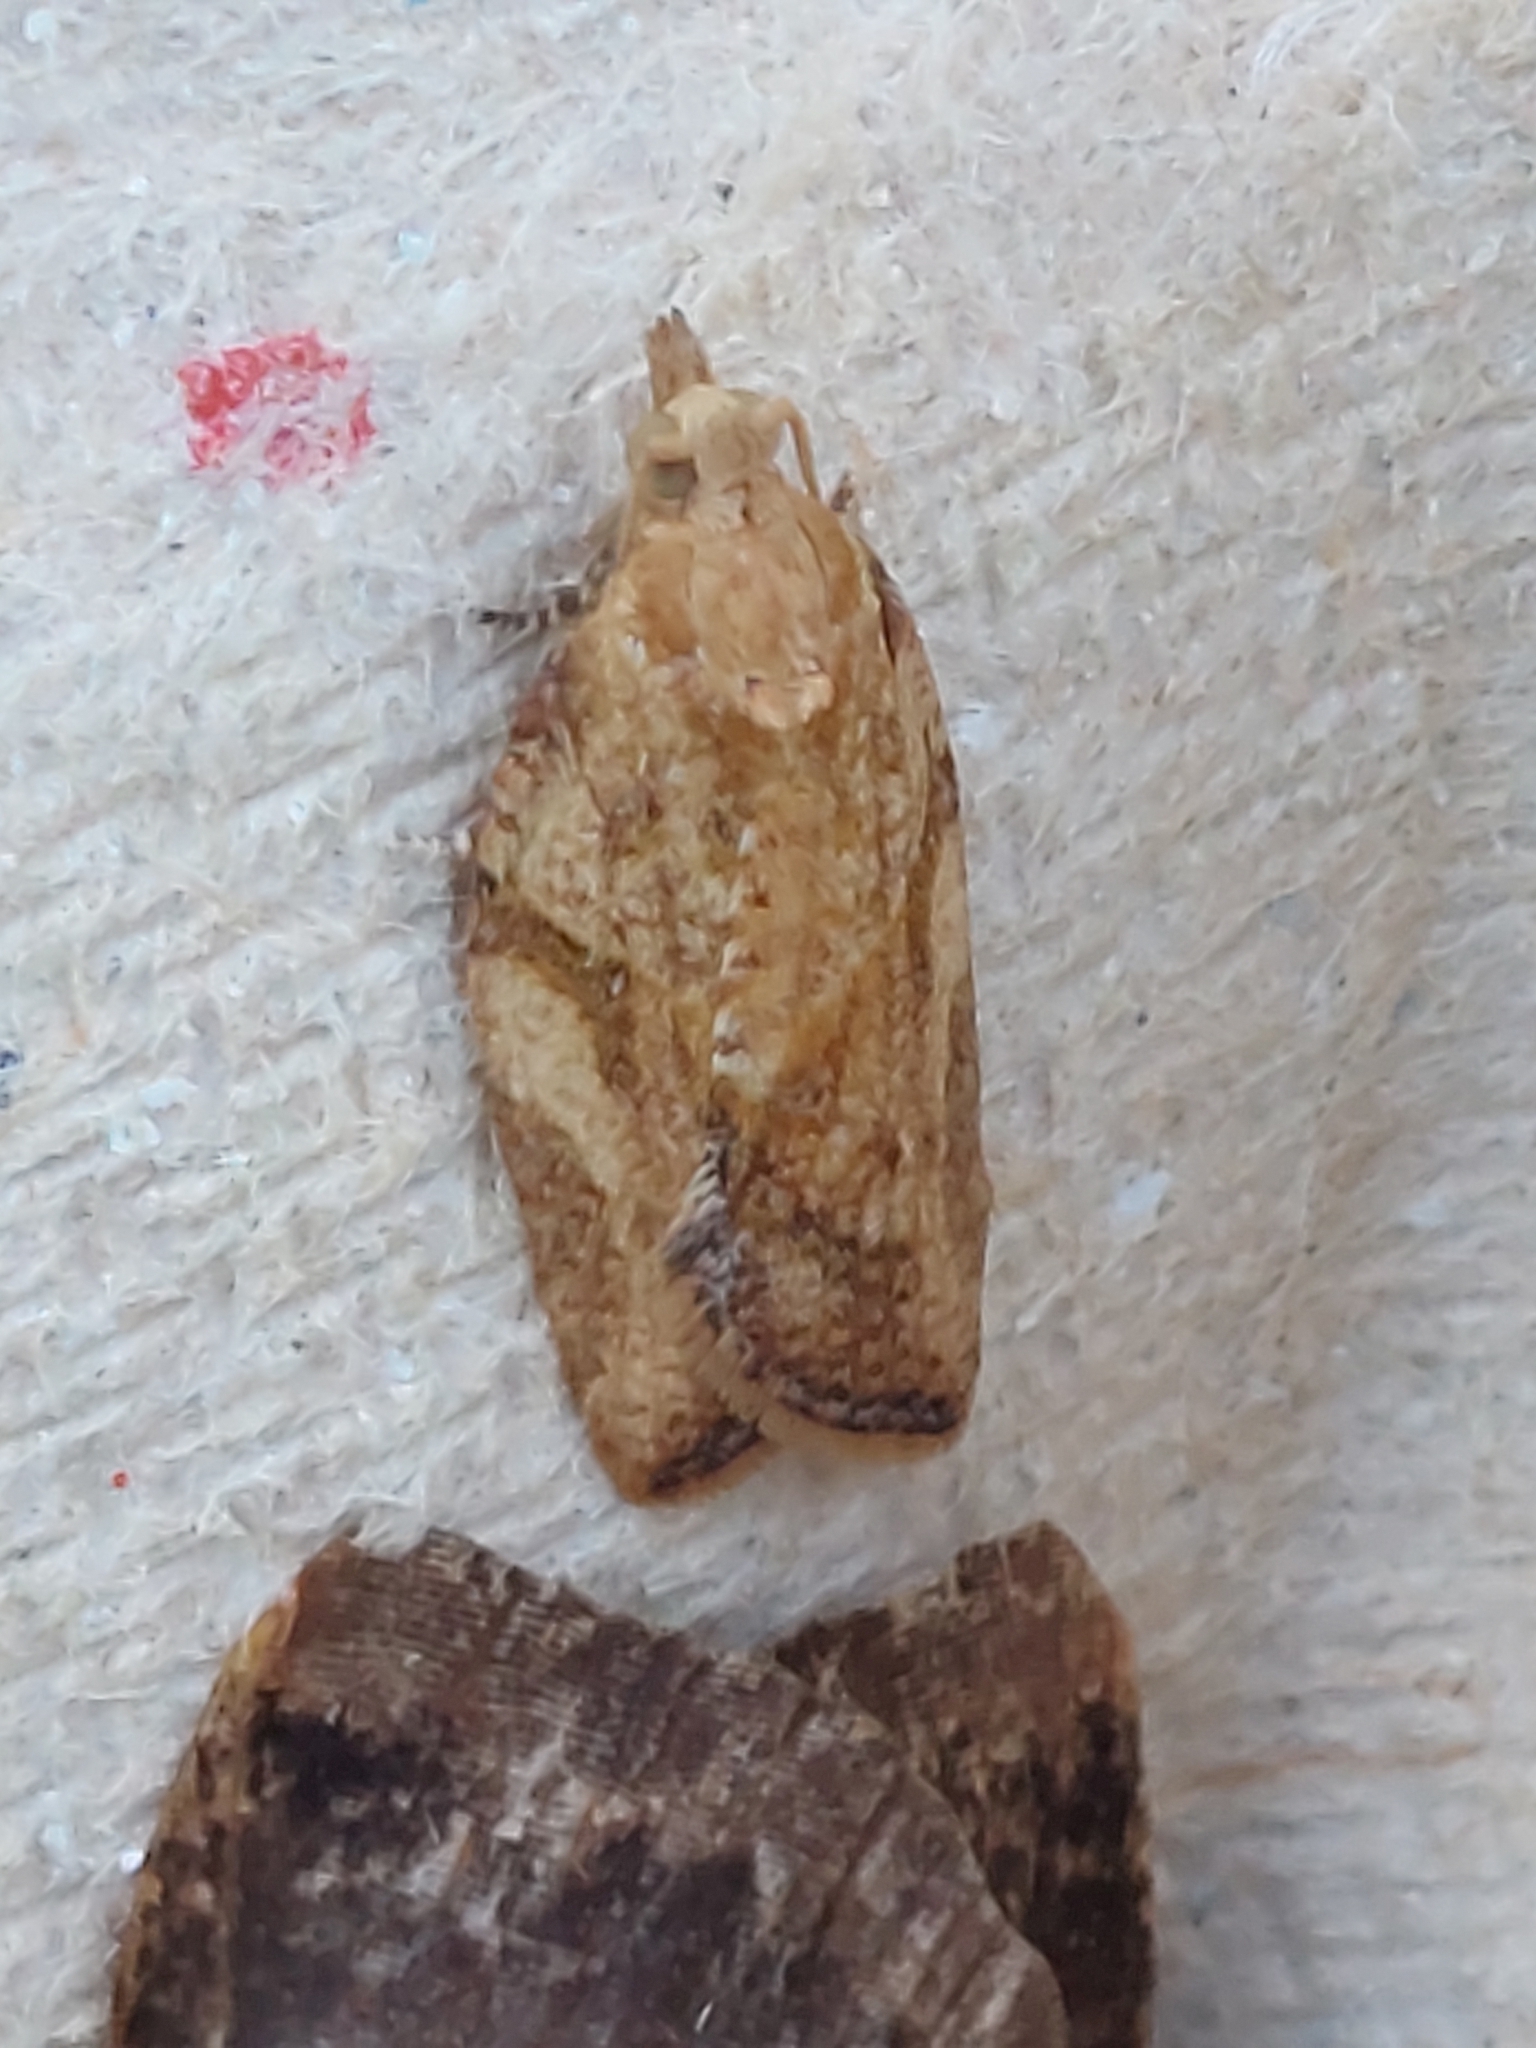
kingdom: Animalia
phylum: Arthropoda
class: Insecta
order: Lepidoptera
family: Tortricidae
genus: Epiphyas
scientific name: Epiphyas postvittana
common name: Light brown apple moth
